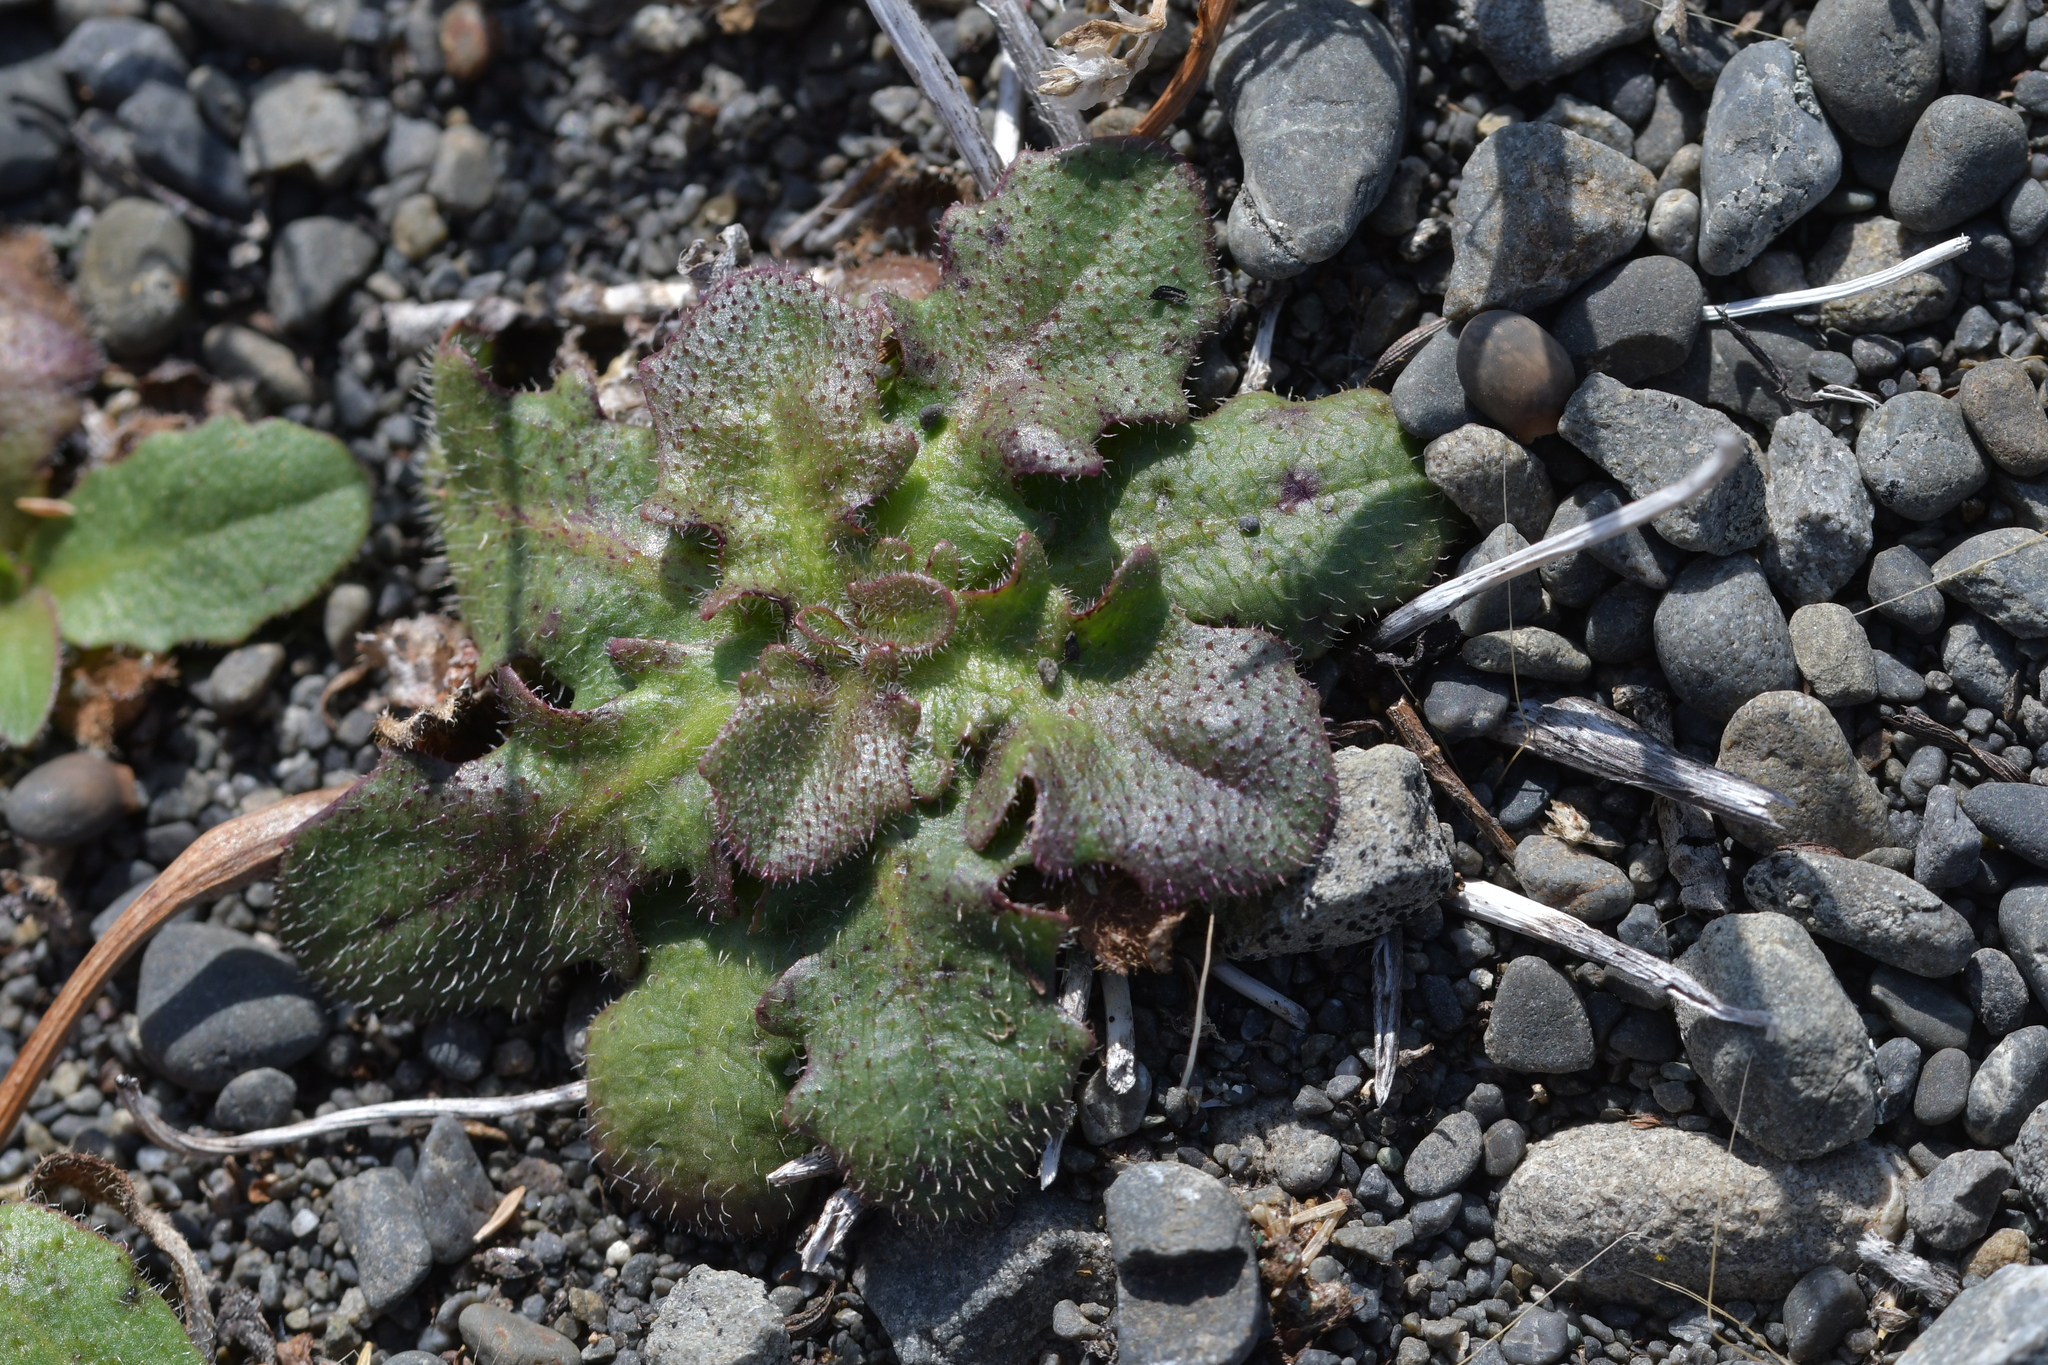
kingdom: Plantae
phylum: Tracheophyta
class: Magnoliopsida
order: Asterales
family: Asteraceae
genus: Hypochaeris
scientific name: Hypochaeris radicata
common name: Flatweed
